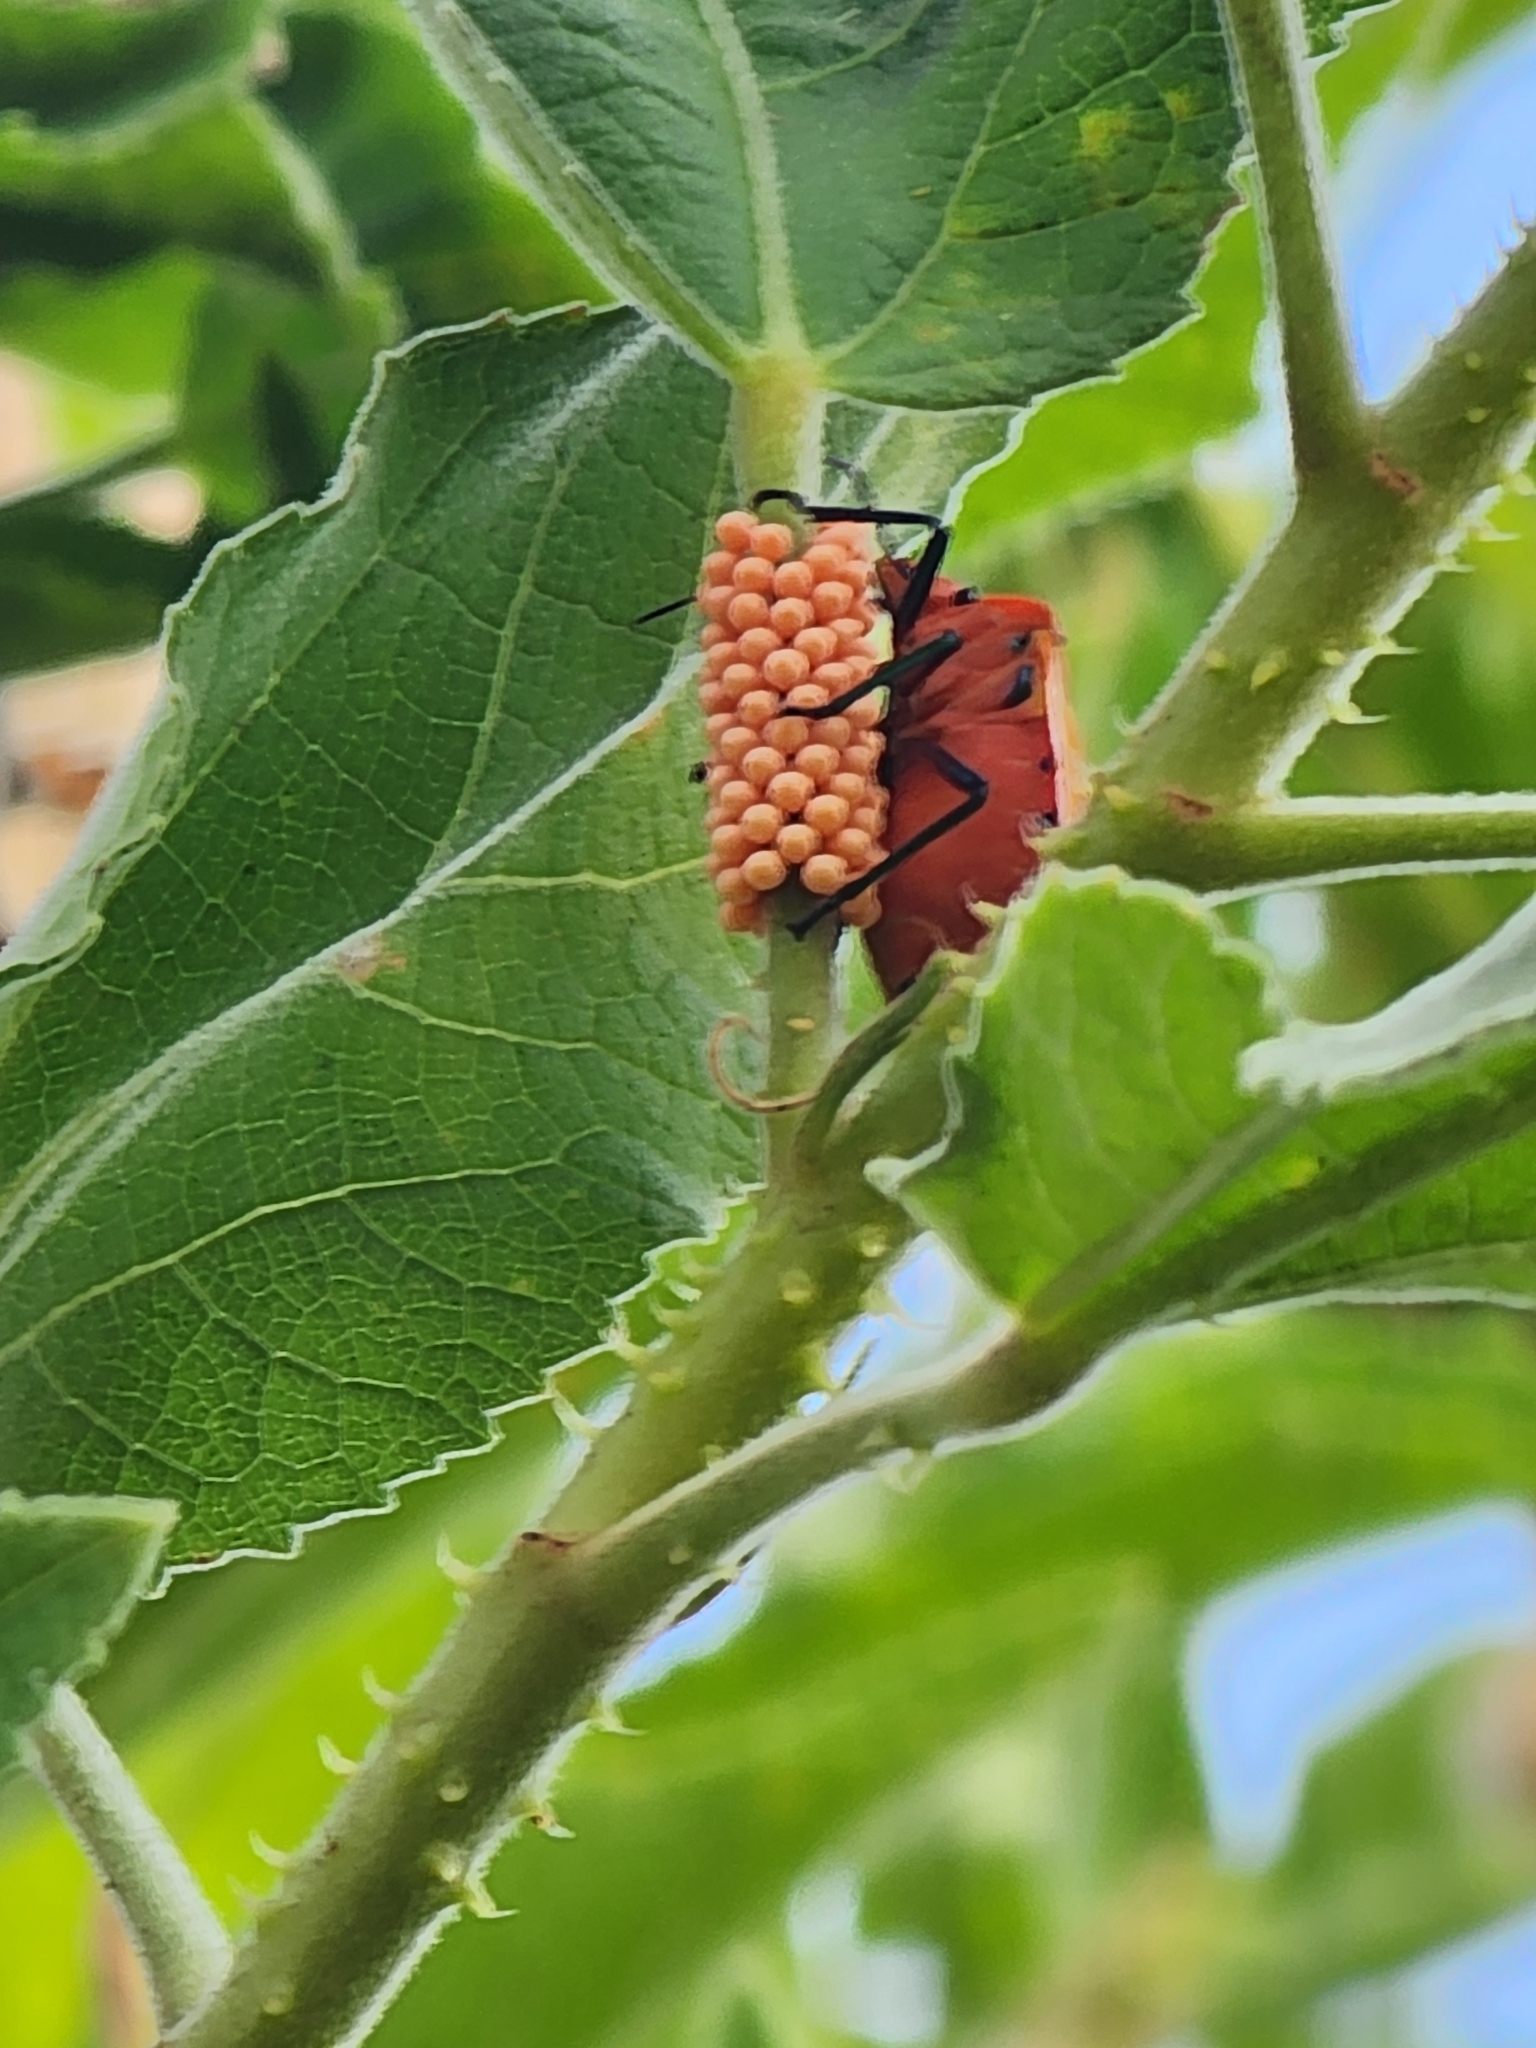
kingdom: Animalia
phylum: Arthropoda
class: Insecta
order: Hemiptera
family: Scutelleridae
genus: Tectocoris
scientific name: Tectocoris diophthalmus
